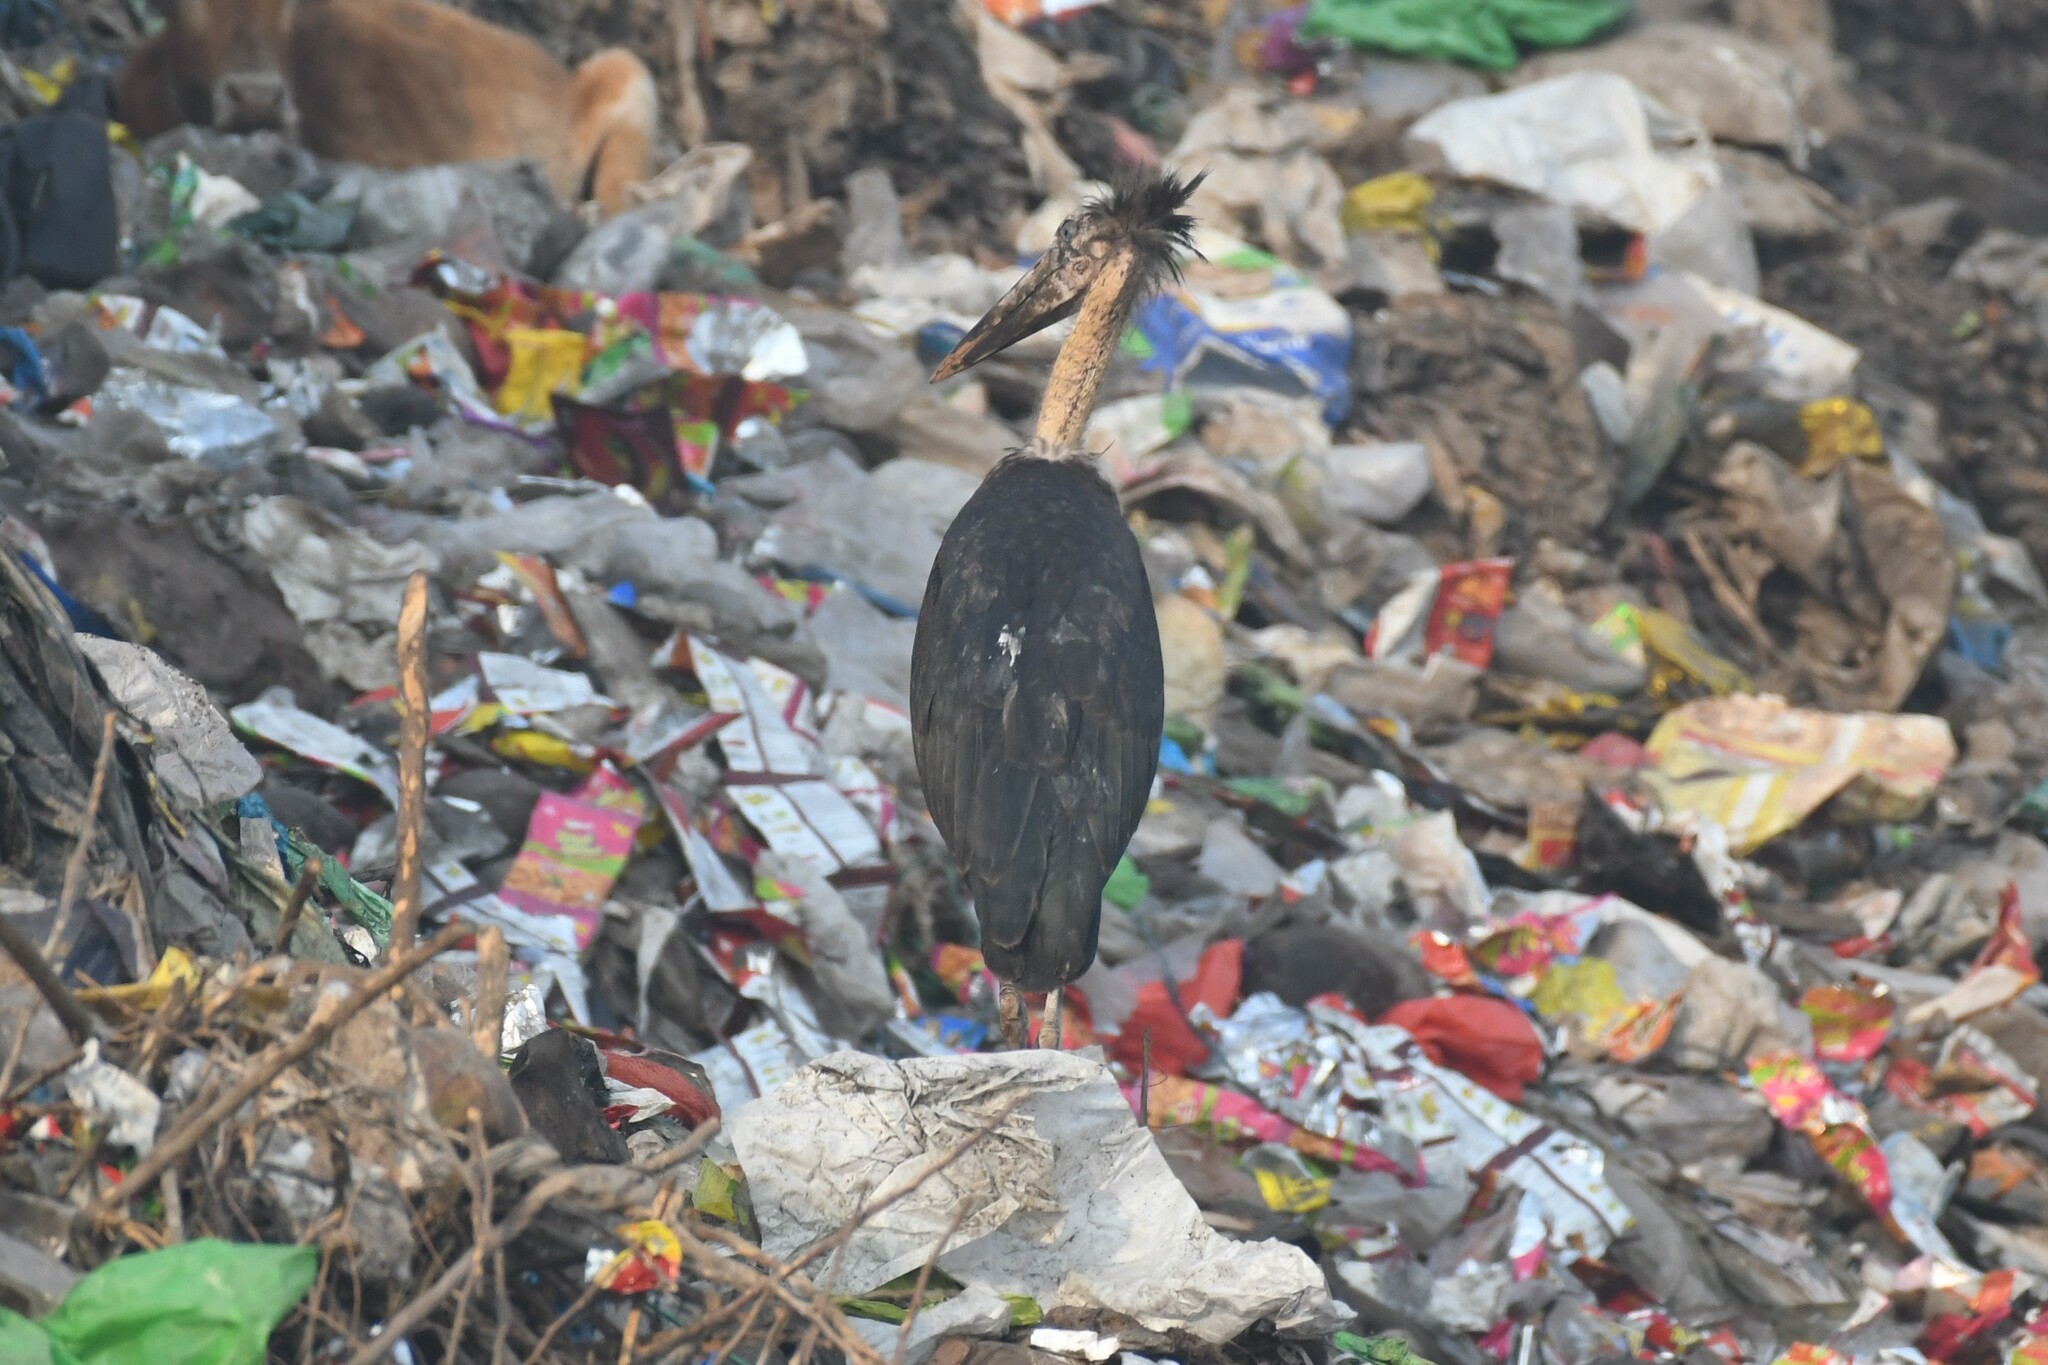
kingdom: Animalia
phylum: Chordata
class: Aves
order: Ciconiiformes
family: Ciconiidae
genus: Leptoptilos
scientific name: Leptoptilos javanicus
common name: Lesser adjutant
